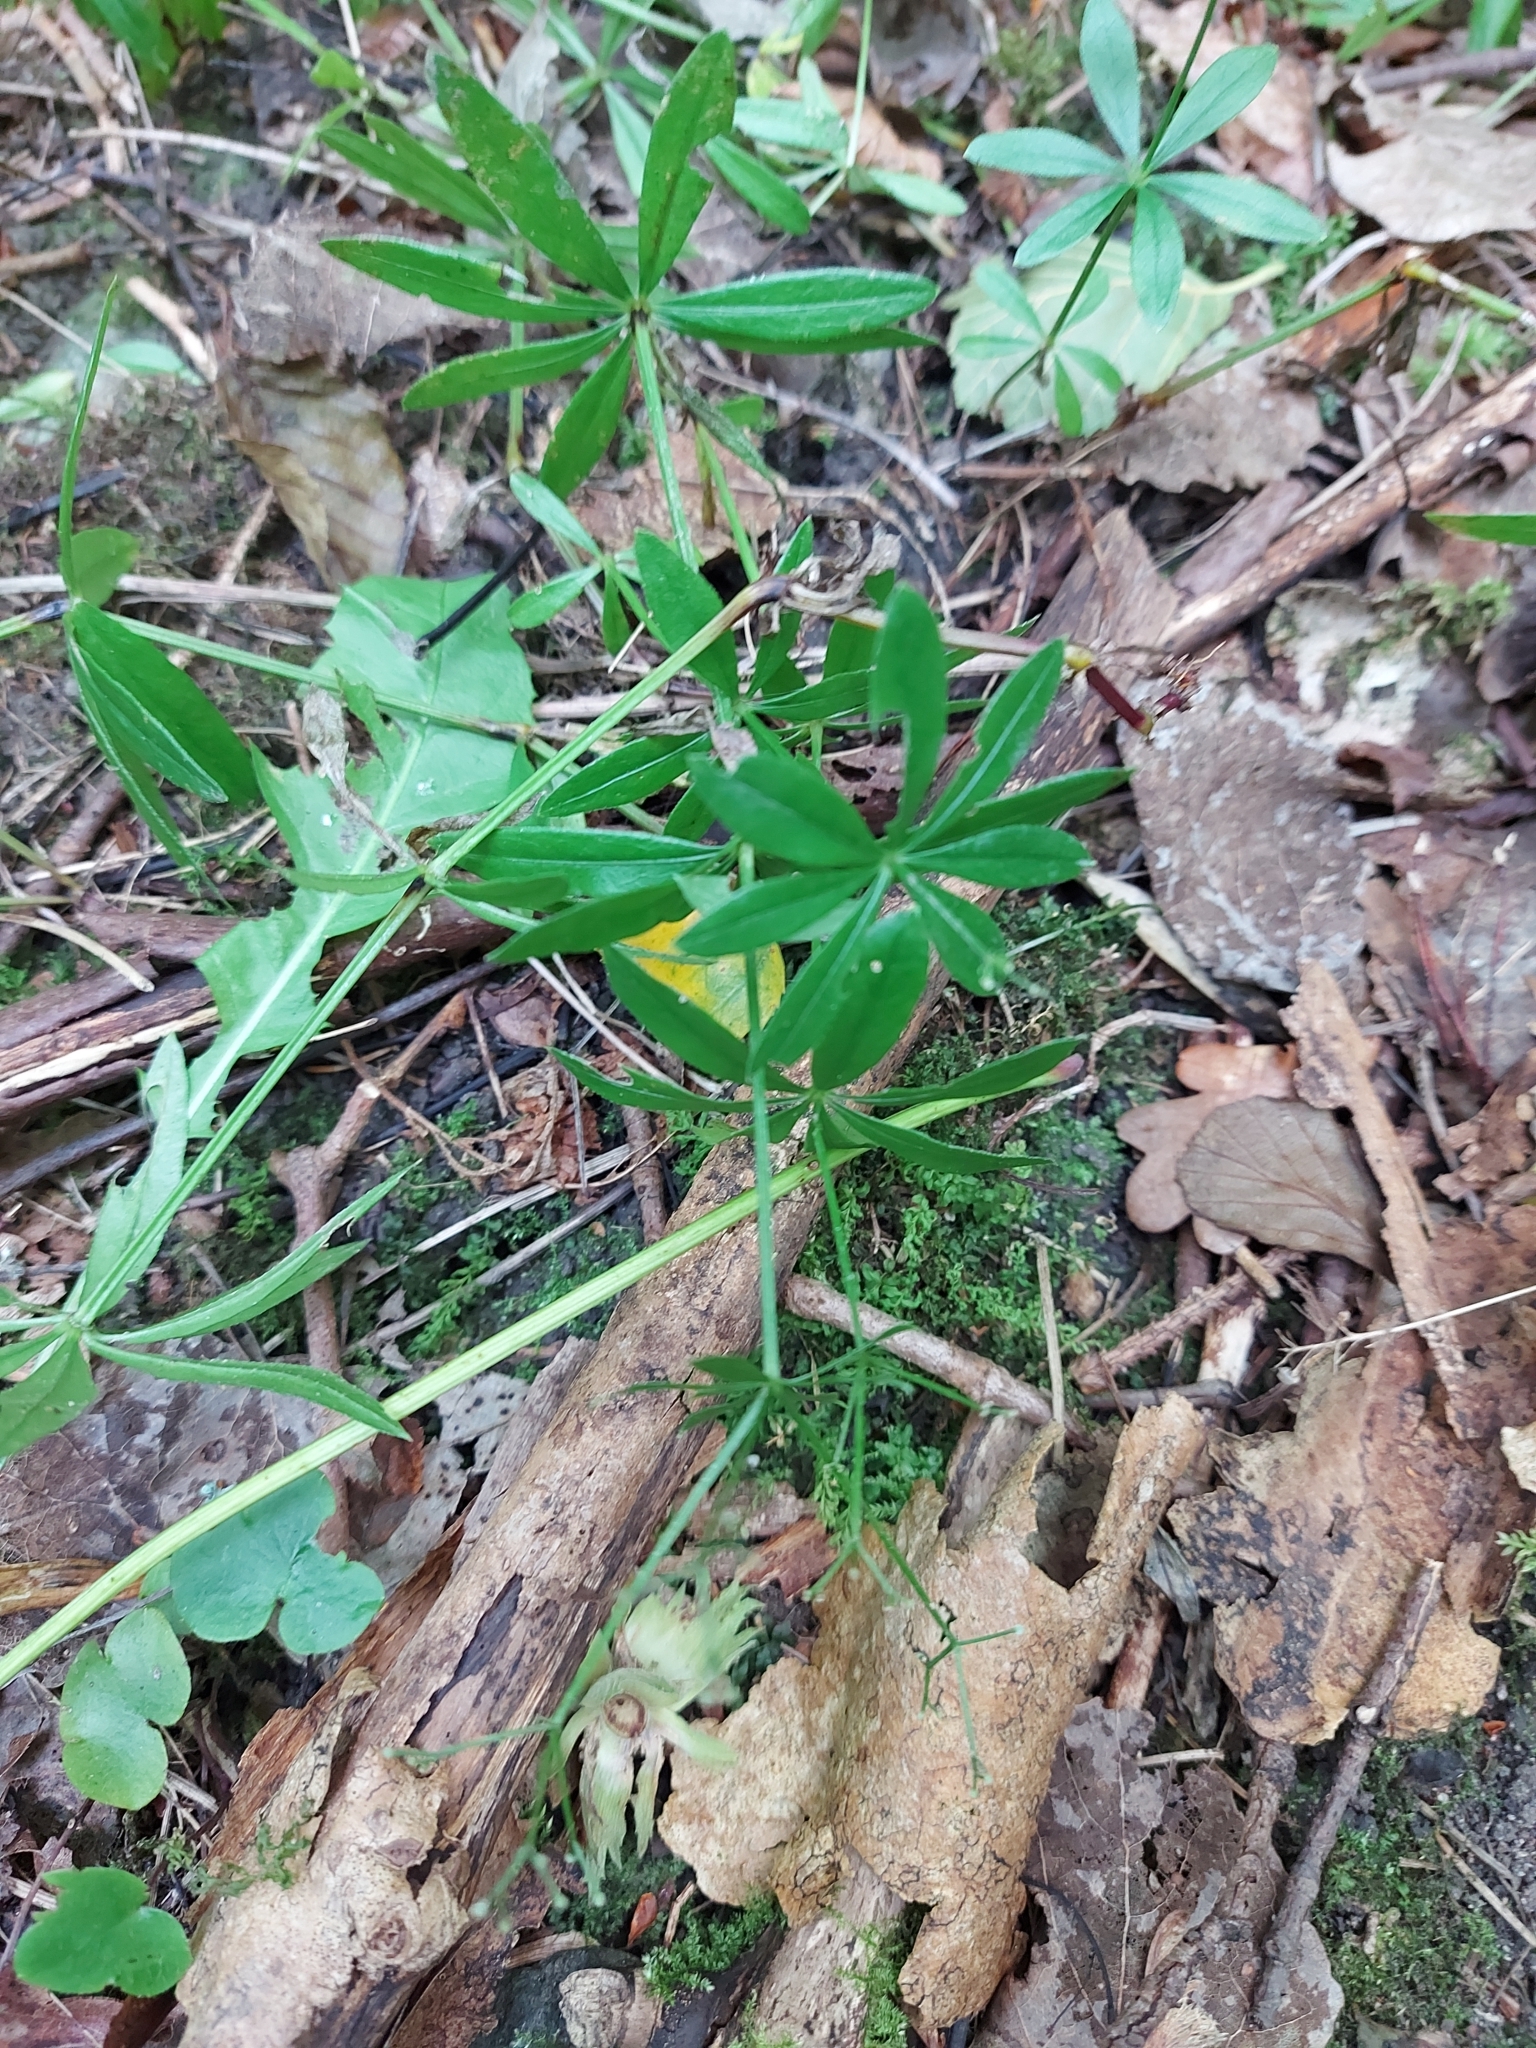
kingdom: Plantae
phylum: Tracheophyta
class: Magnoliopsida
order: Gentianales
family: Rubiaceae
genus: Galium
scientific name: Galium odoratum
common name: Sweet woodruff
